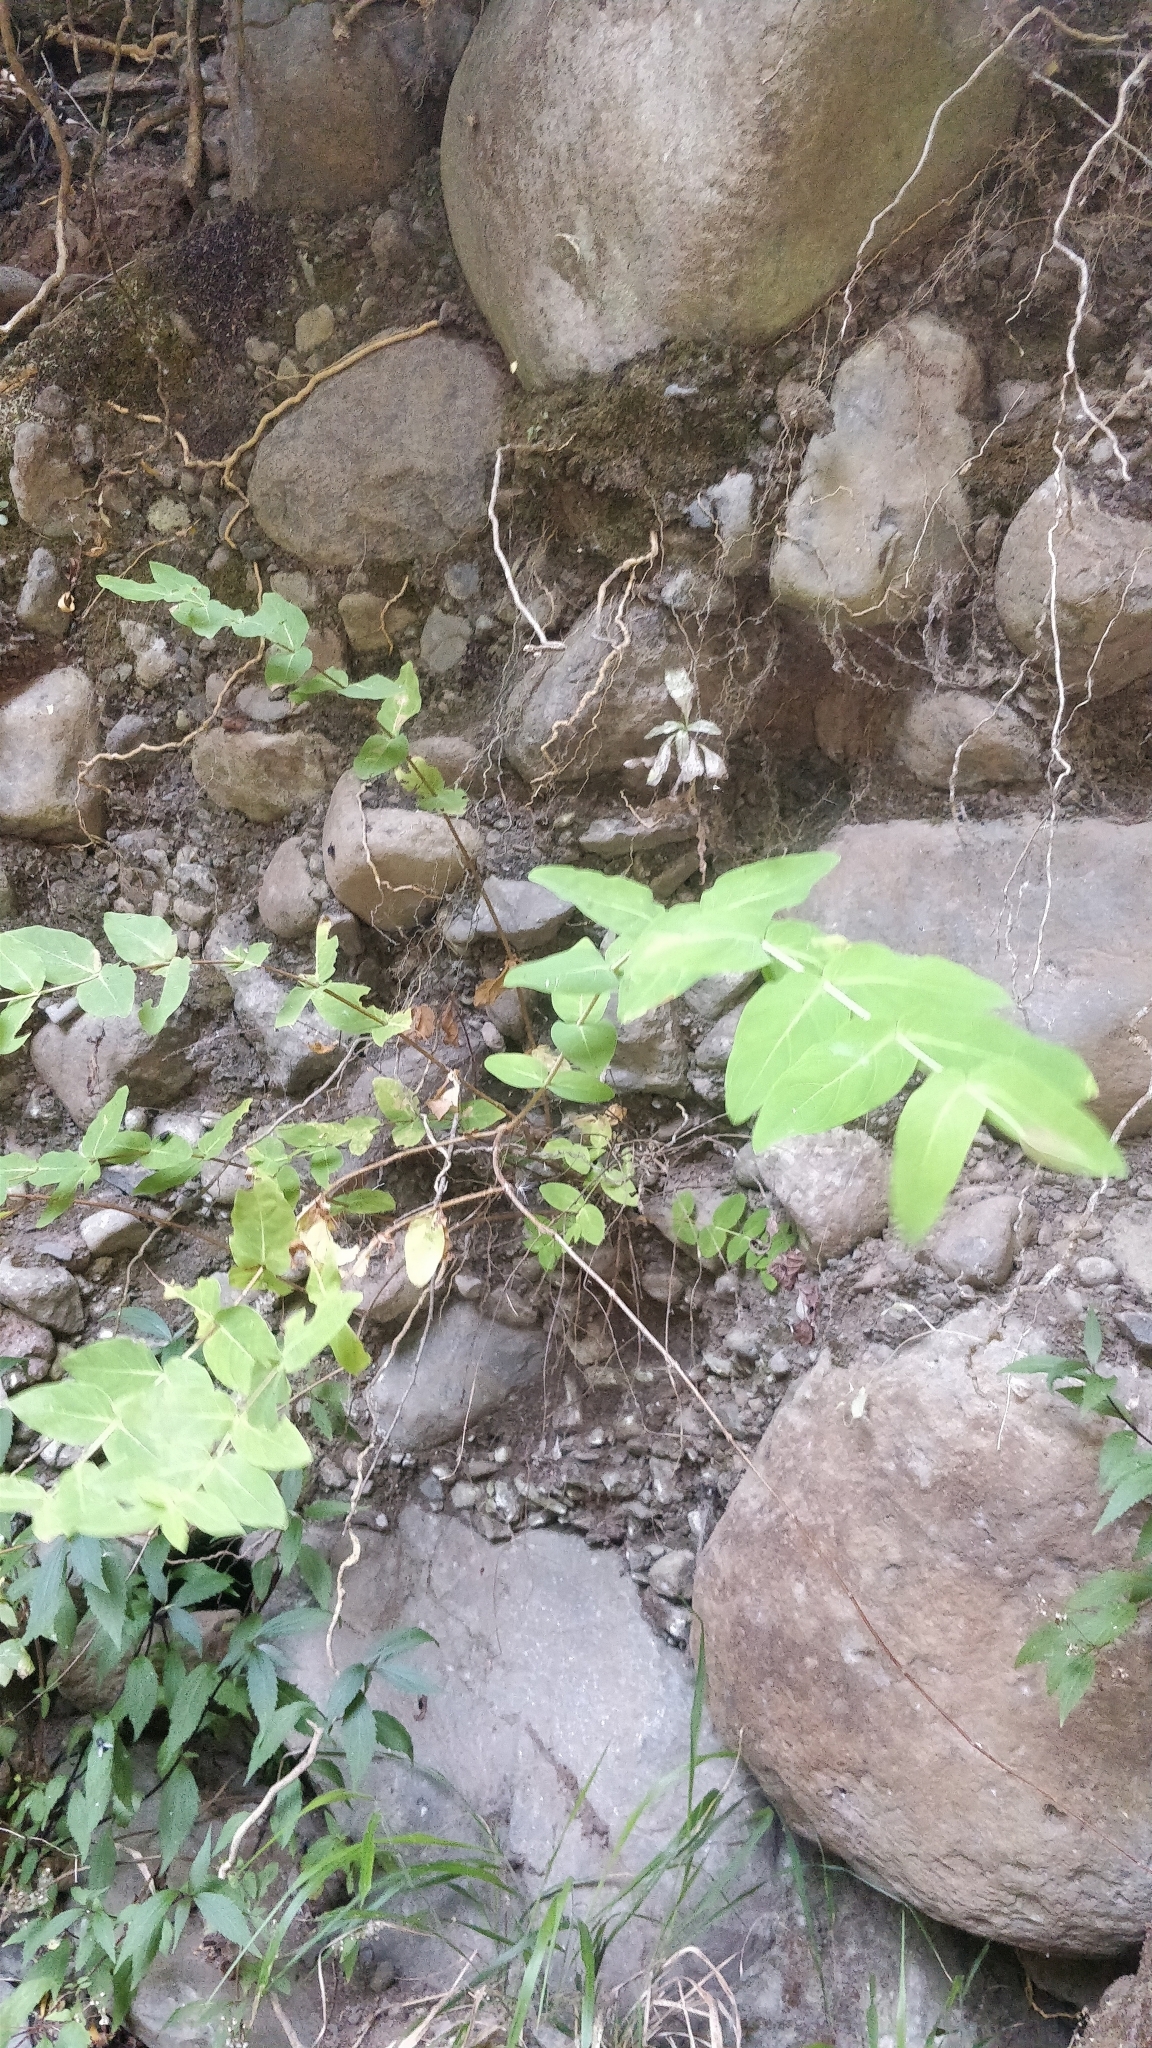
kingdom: Plantae
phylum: Tracheophyta
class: Magnoliopsida
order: Malpighiales
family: Hypericaceae
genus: Hypericum
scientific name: Hypericum grandifolium
